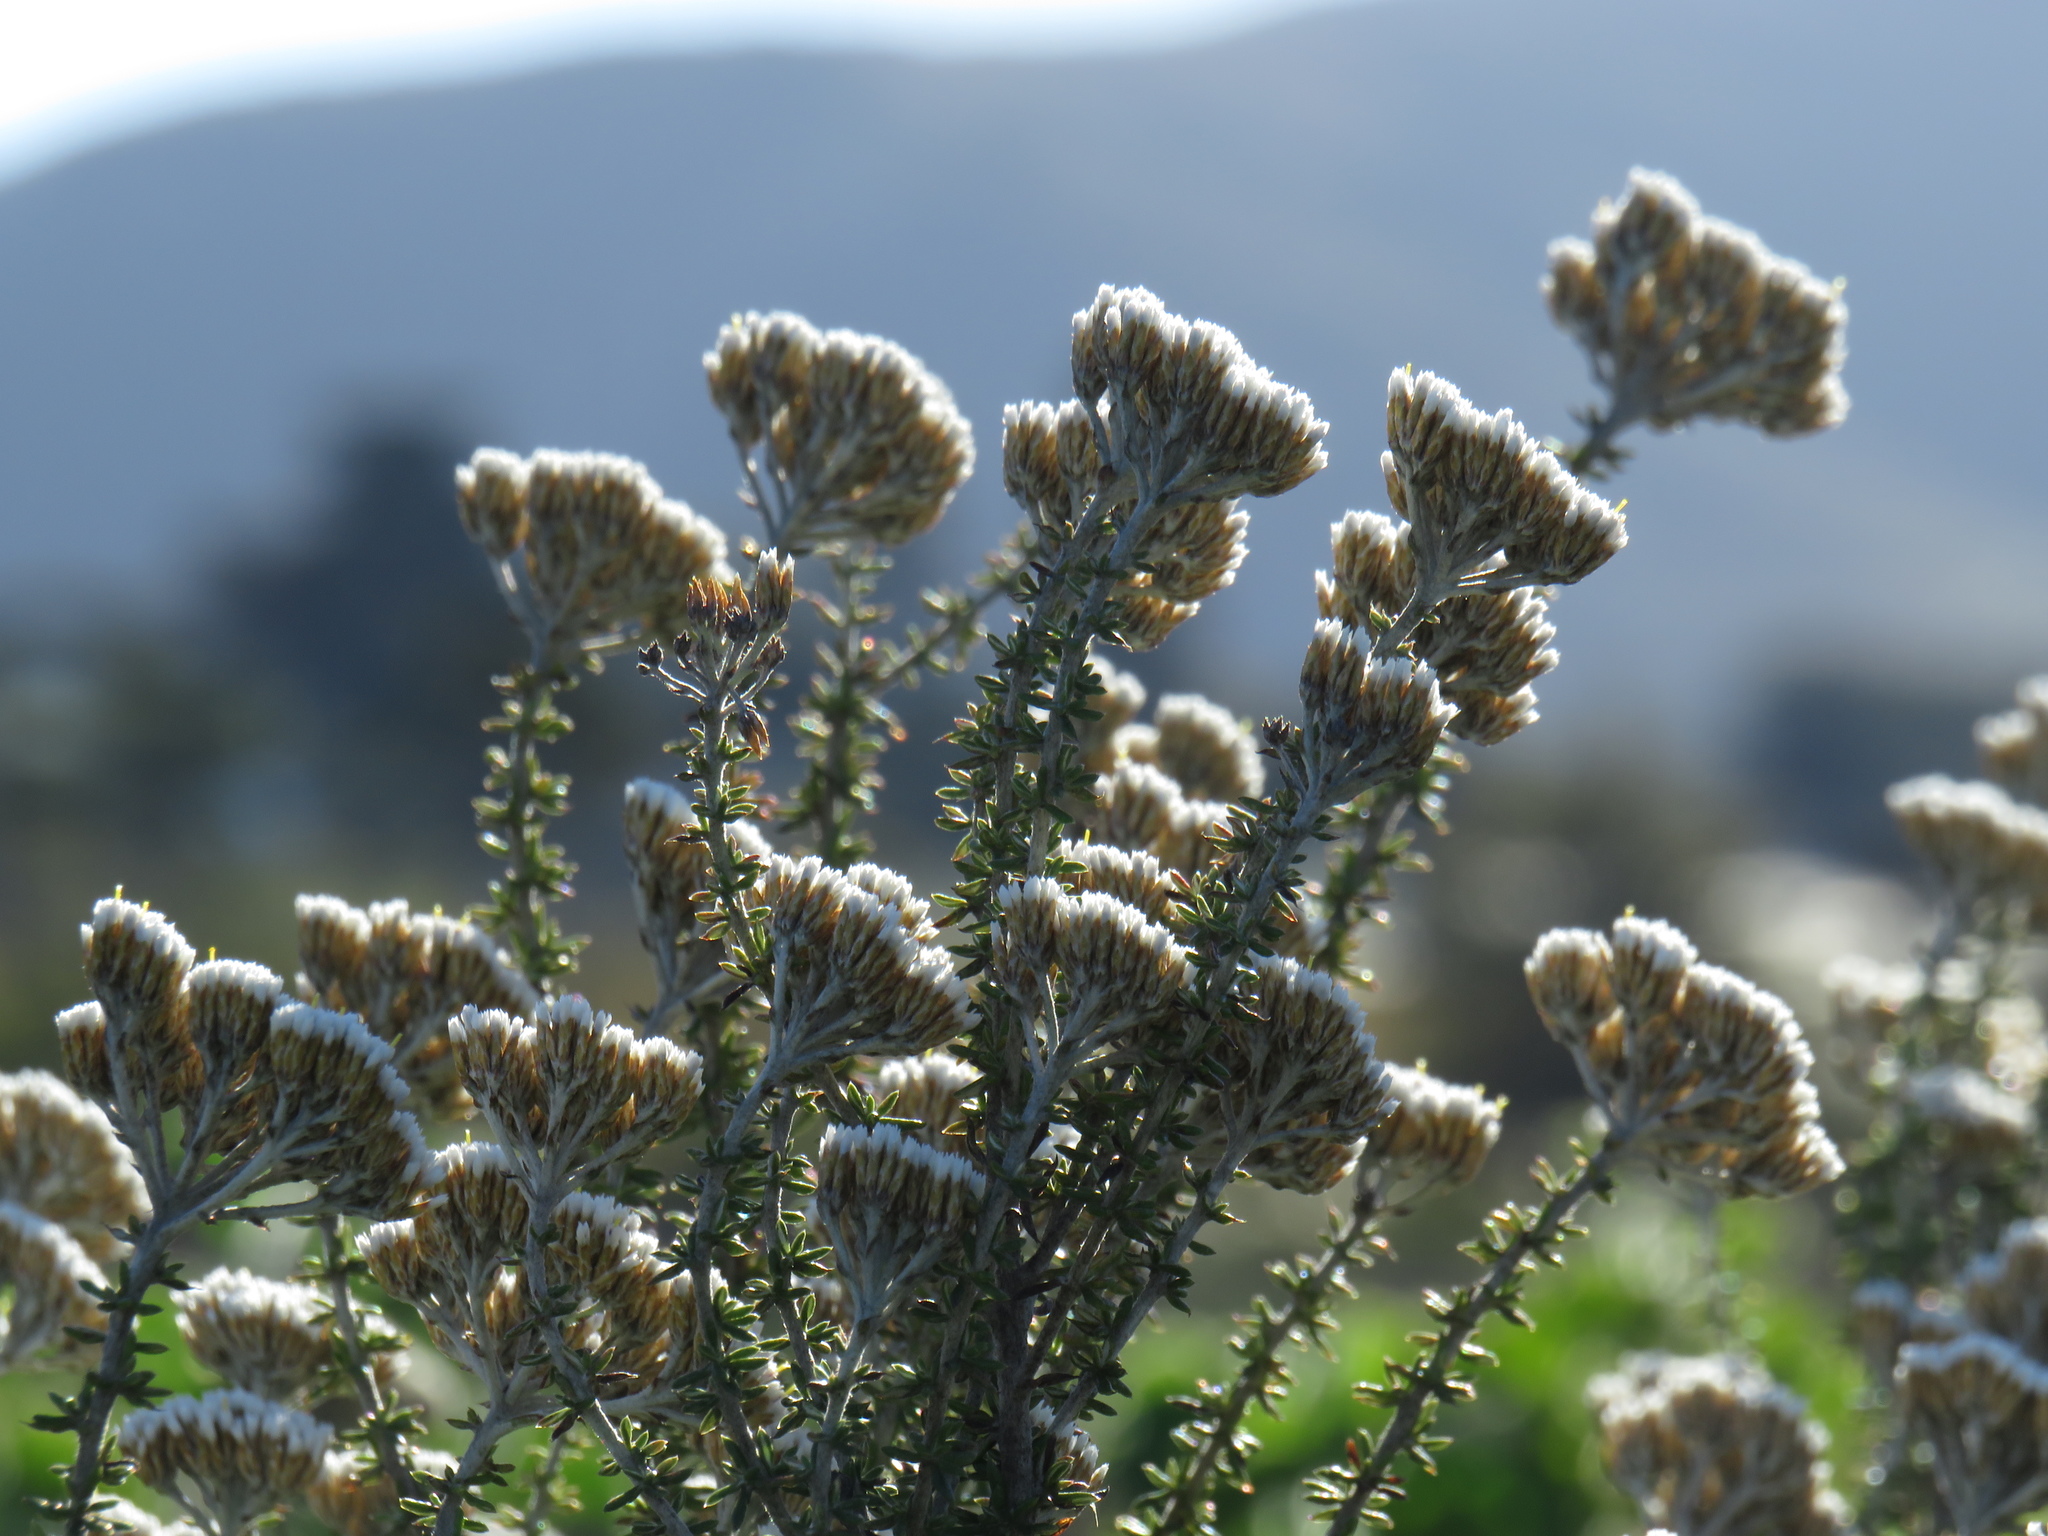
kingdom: Plantae
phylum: Tracheophyta
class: Magnoliopsida
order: Asterales
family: Asteraceae
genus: Metalasia
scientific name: Metalasia densa
